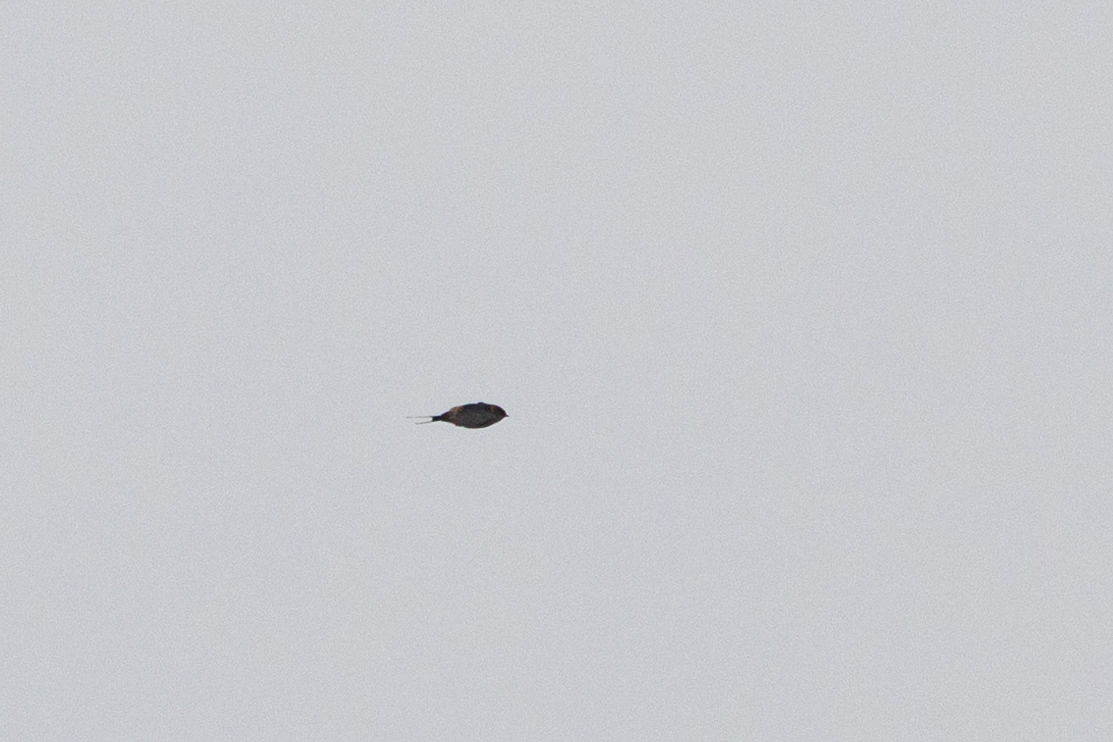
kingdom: Animalia
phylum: Chordata
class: Aves
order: Passeriformes
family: Hirundinidae
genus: Cecropis
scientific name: Cecropis daurica
